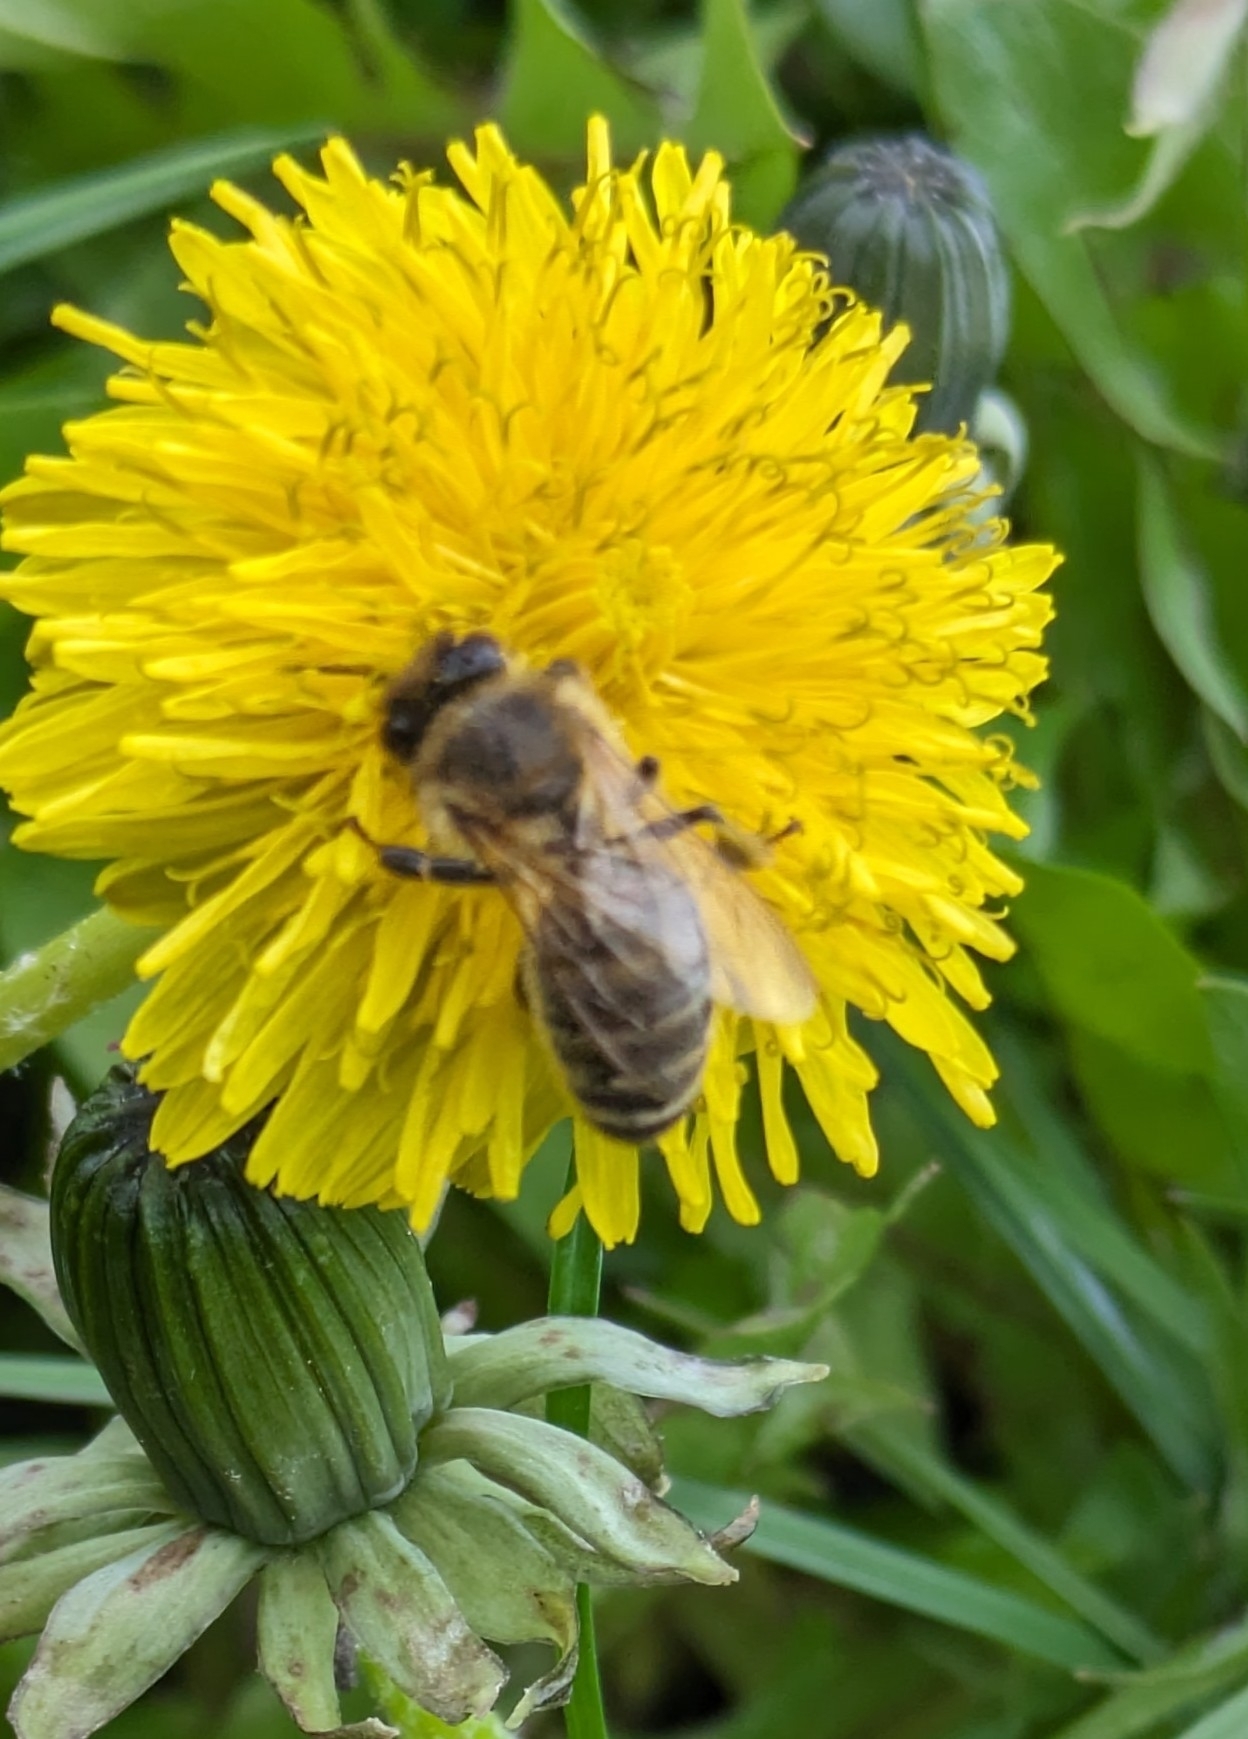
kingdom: Animalia
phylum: Arthropoda
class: Insecta
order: Hymenoptera
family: Apidae
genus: Apis
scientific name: Apis mellifera
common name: Honey bee
